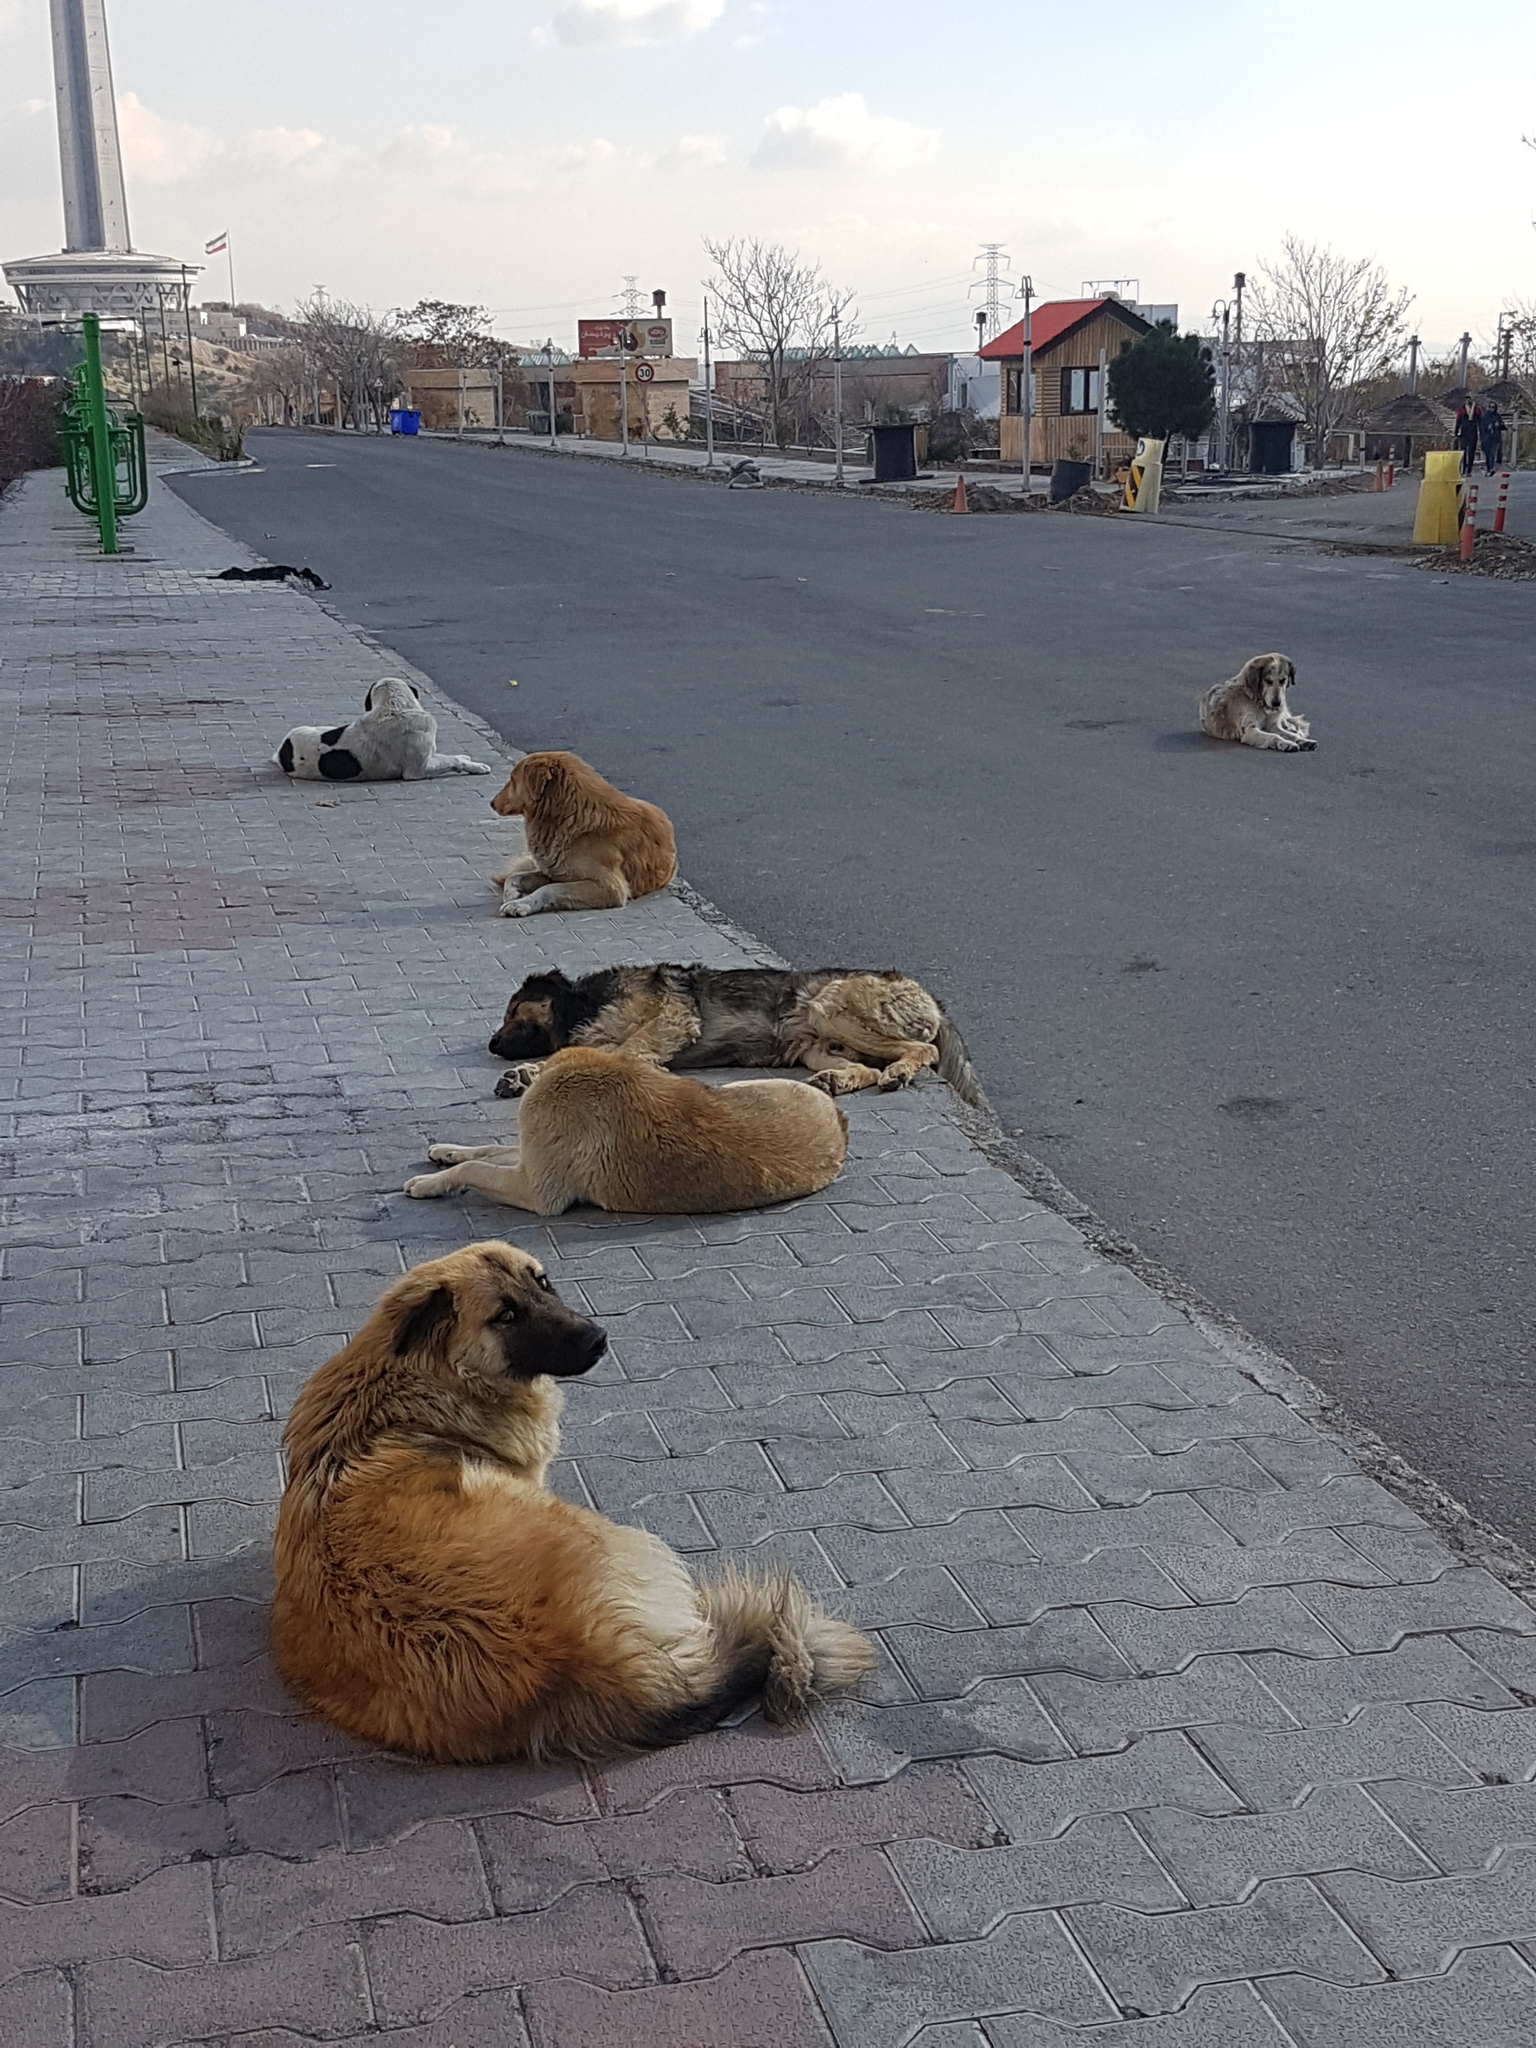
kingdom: Animalia
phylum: Chordata
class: Mammalia
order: Carnivora
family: Canidae
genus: Canis
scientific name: Canis lupus
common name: Gray wolf
